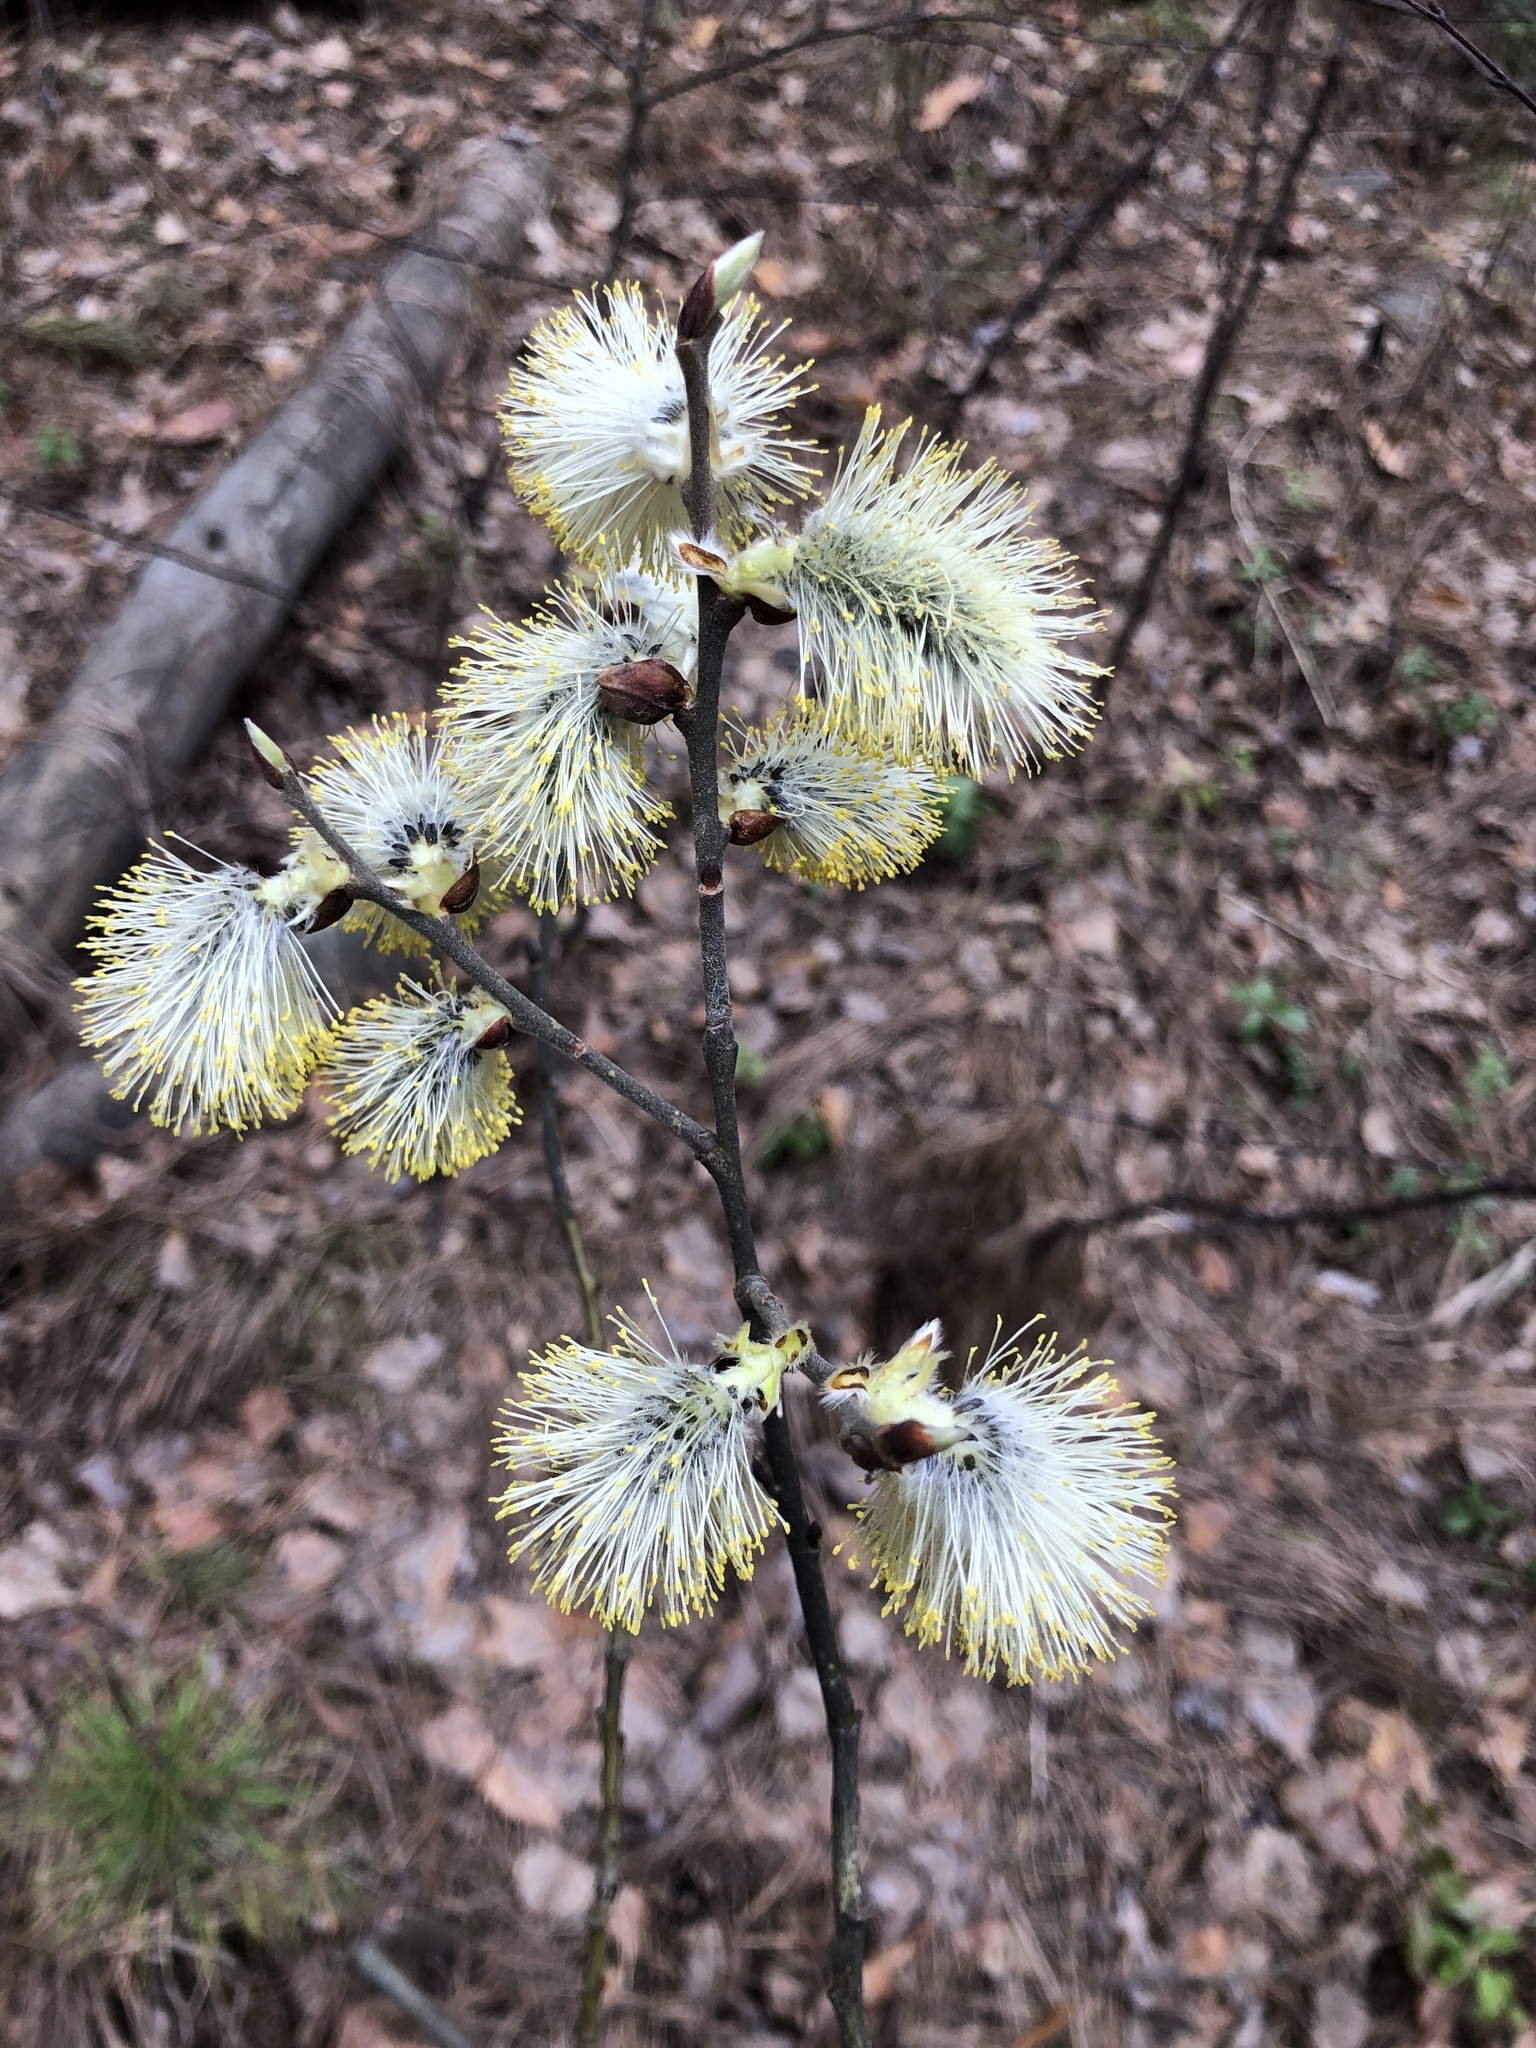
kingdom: Plantae
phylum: Tracheophyta
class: Magnoliopsida
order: Malpighiales
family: Salicaceae
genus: Salix
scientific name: Salix caprea
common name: Goat willow
